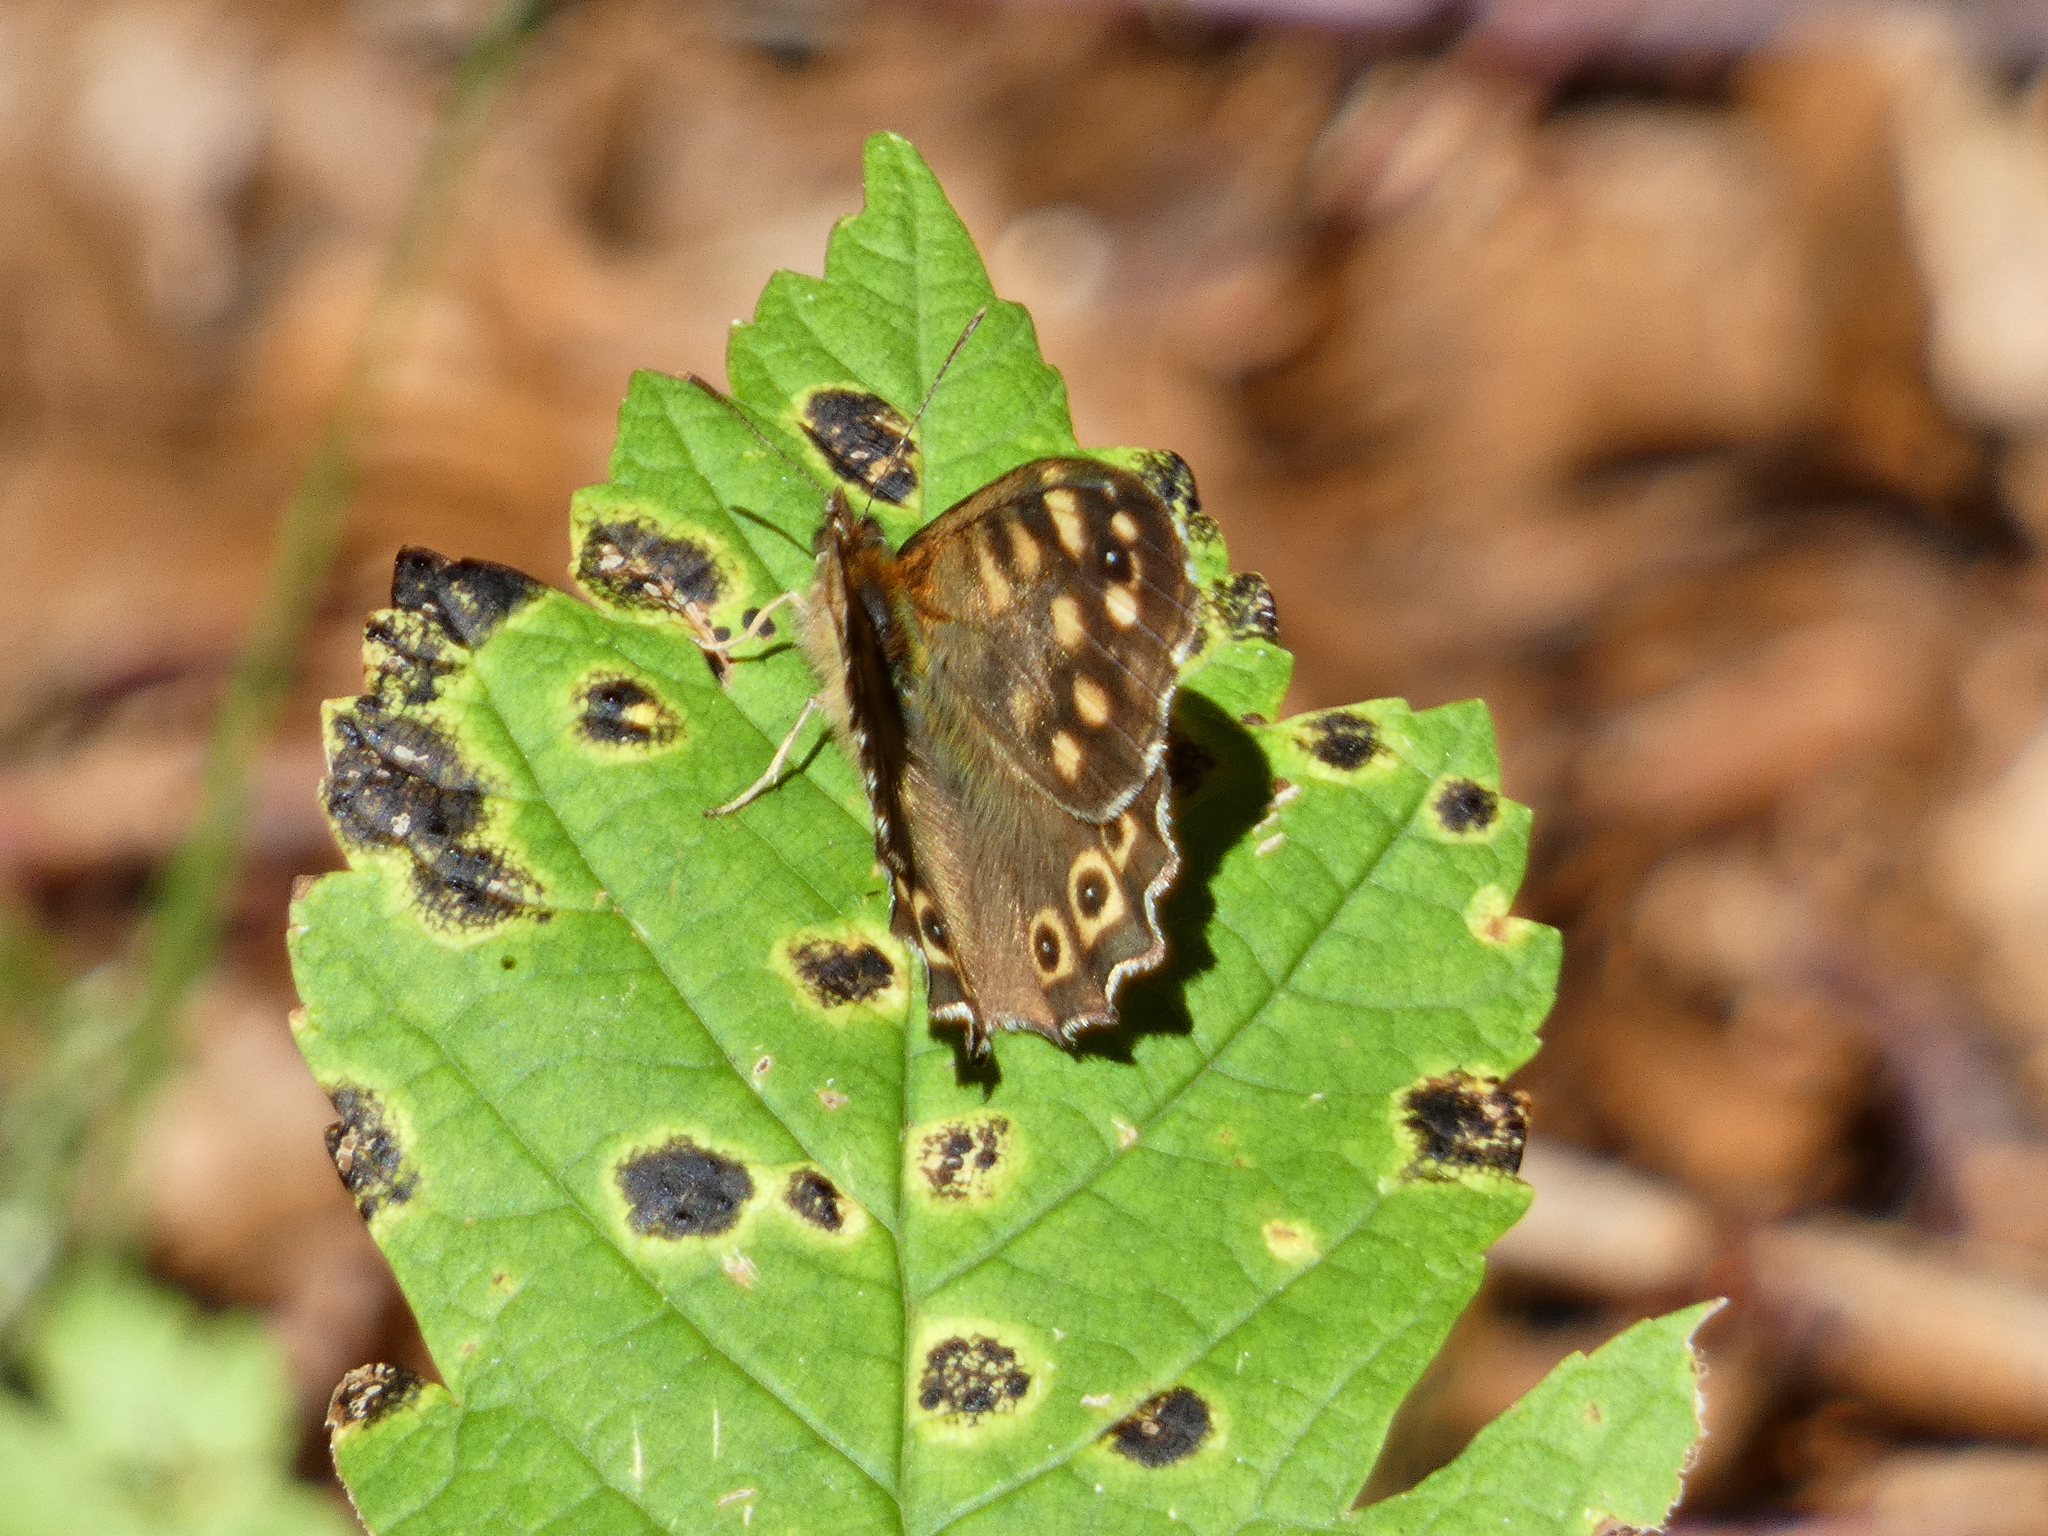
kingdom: Animalia
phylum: Arthropoda
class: Insecta
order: Lepidoptera
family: Nymphalidae
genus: Pararge
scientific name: Pararge aegeria
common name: Speckled wood
